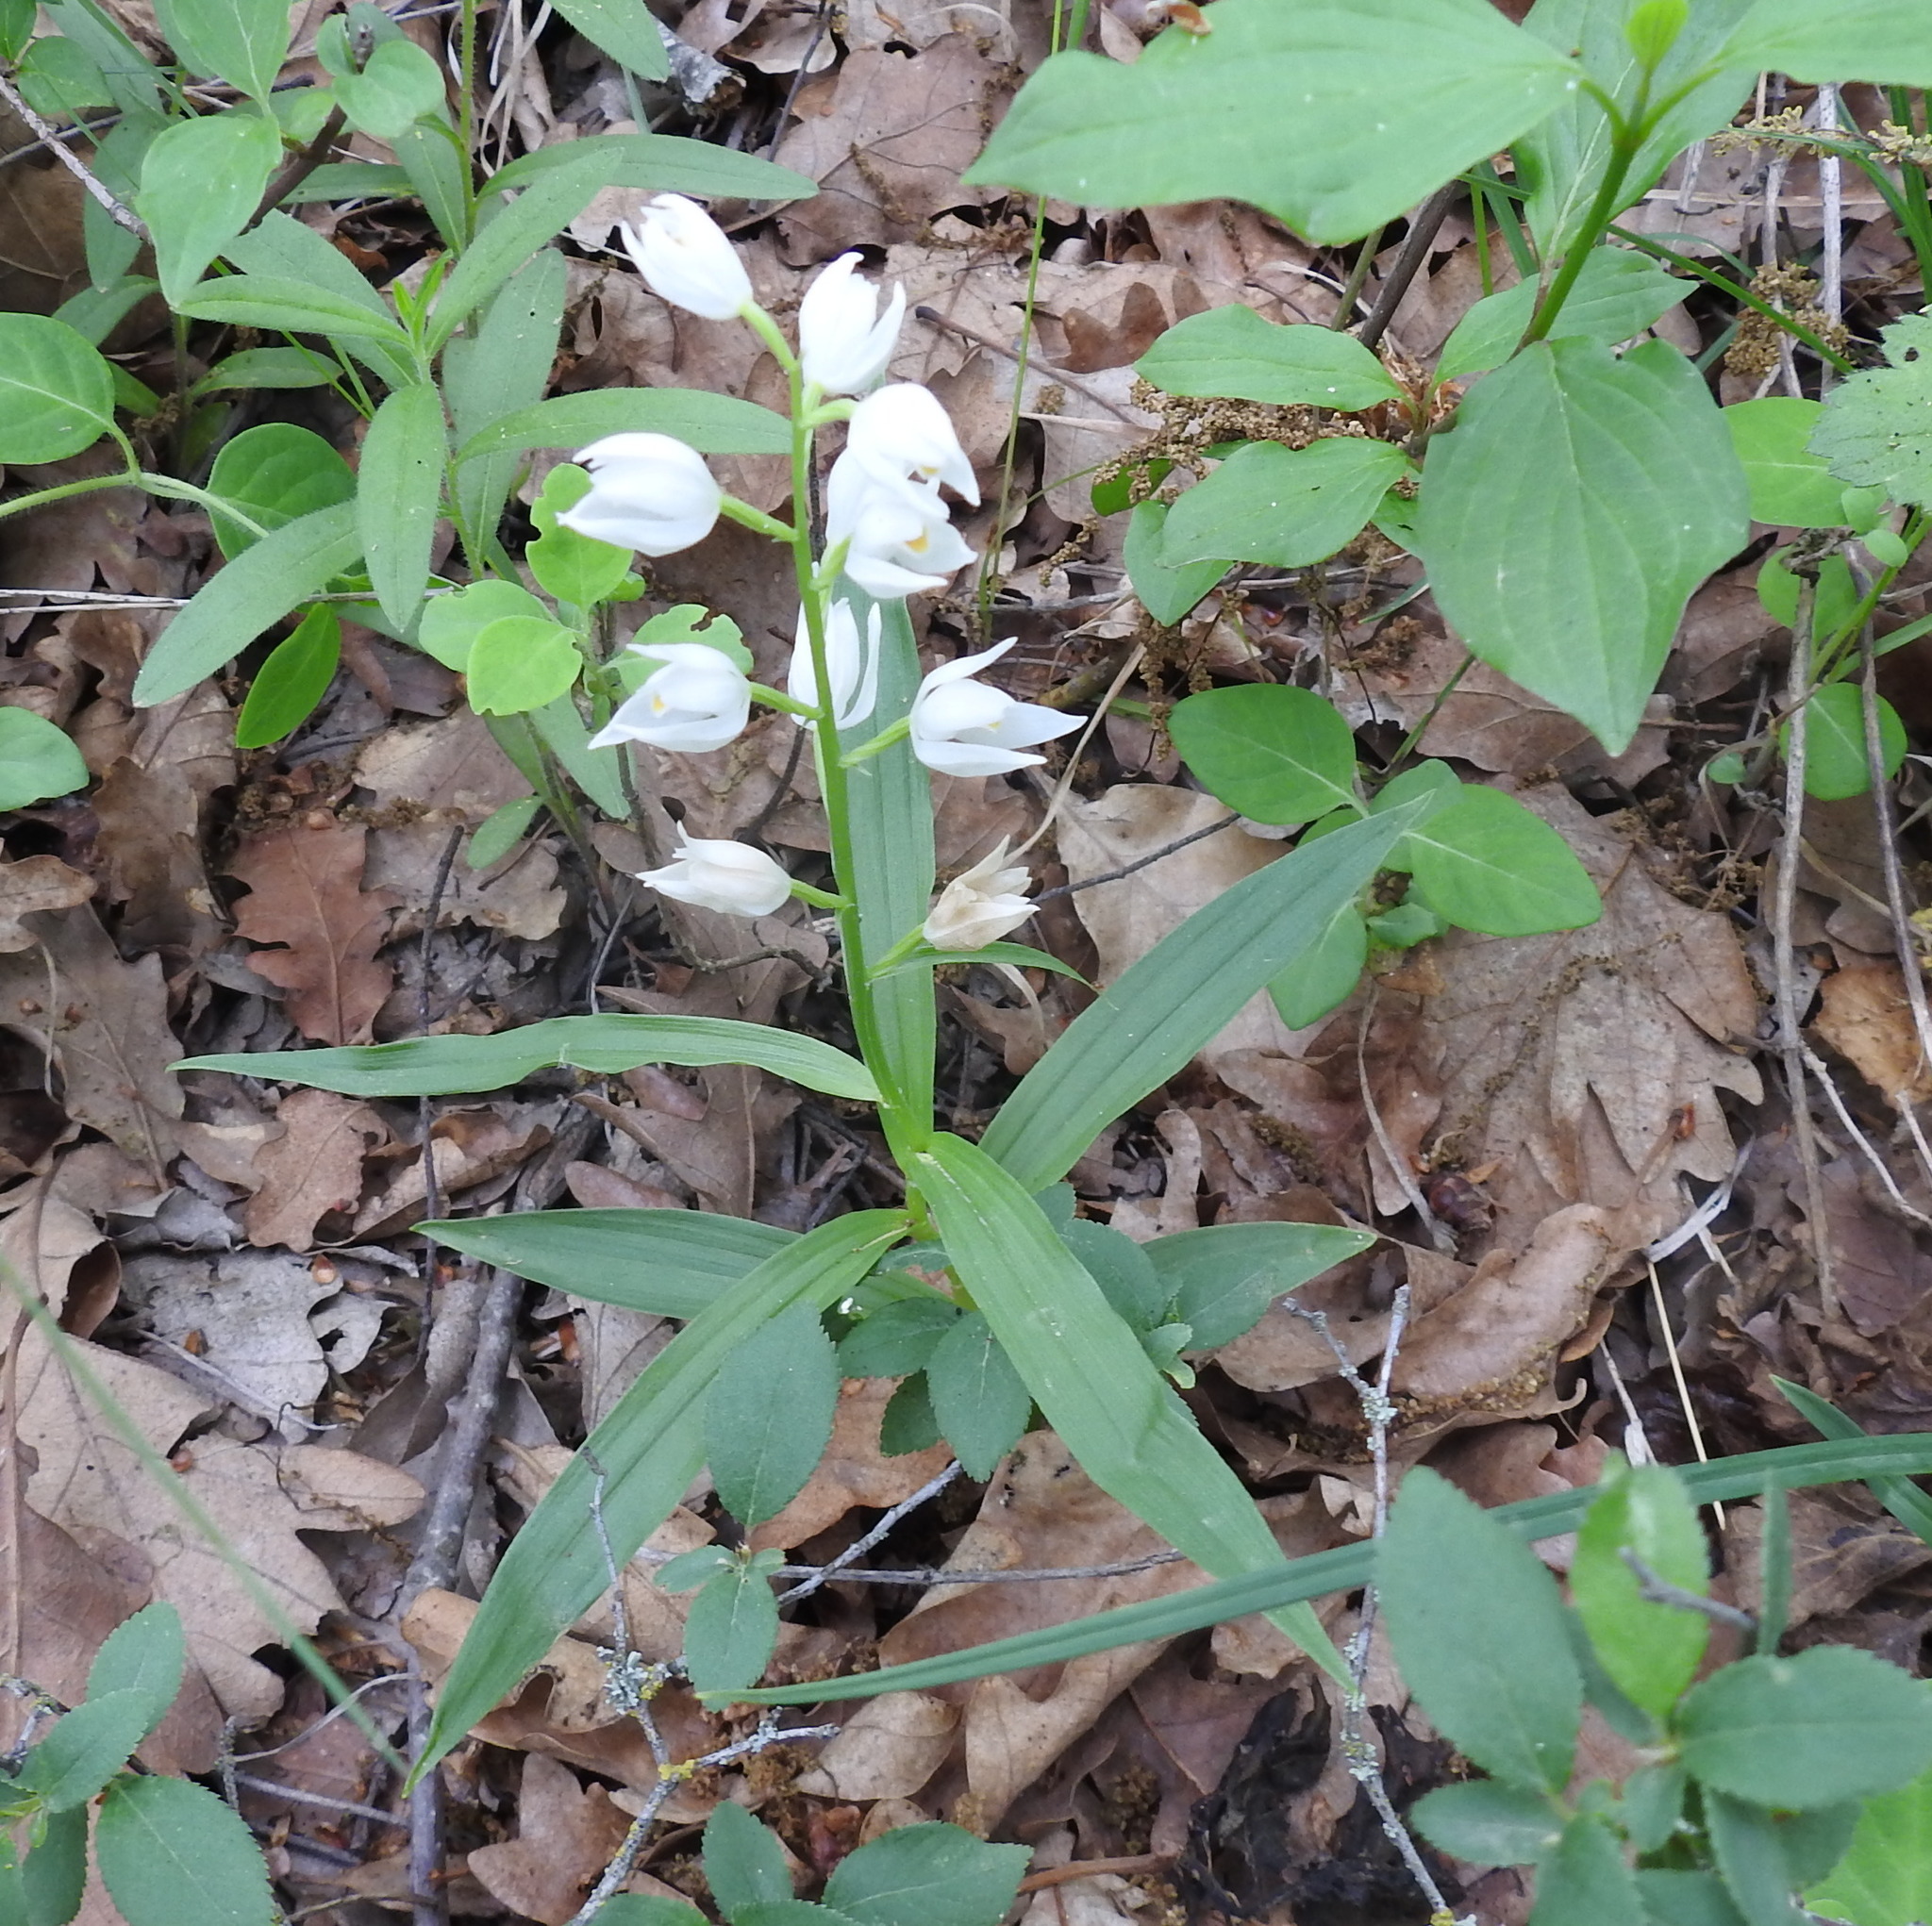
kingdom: Plantae
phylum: Tracheophyta
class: Liliopsida
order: Asparagales
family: Orchidaceae
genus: Cephalanthera
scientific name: Cephalanthera longifolia
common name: Narrow-leaved helleborine
